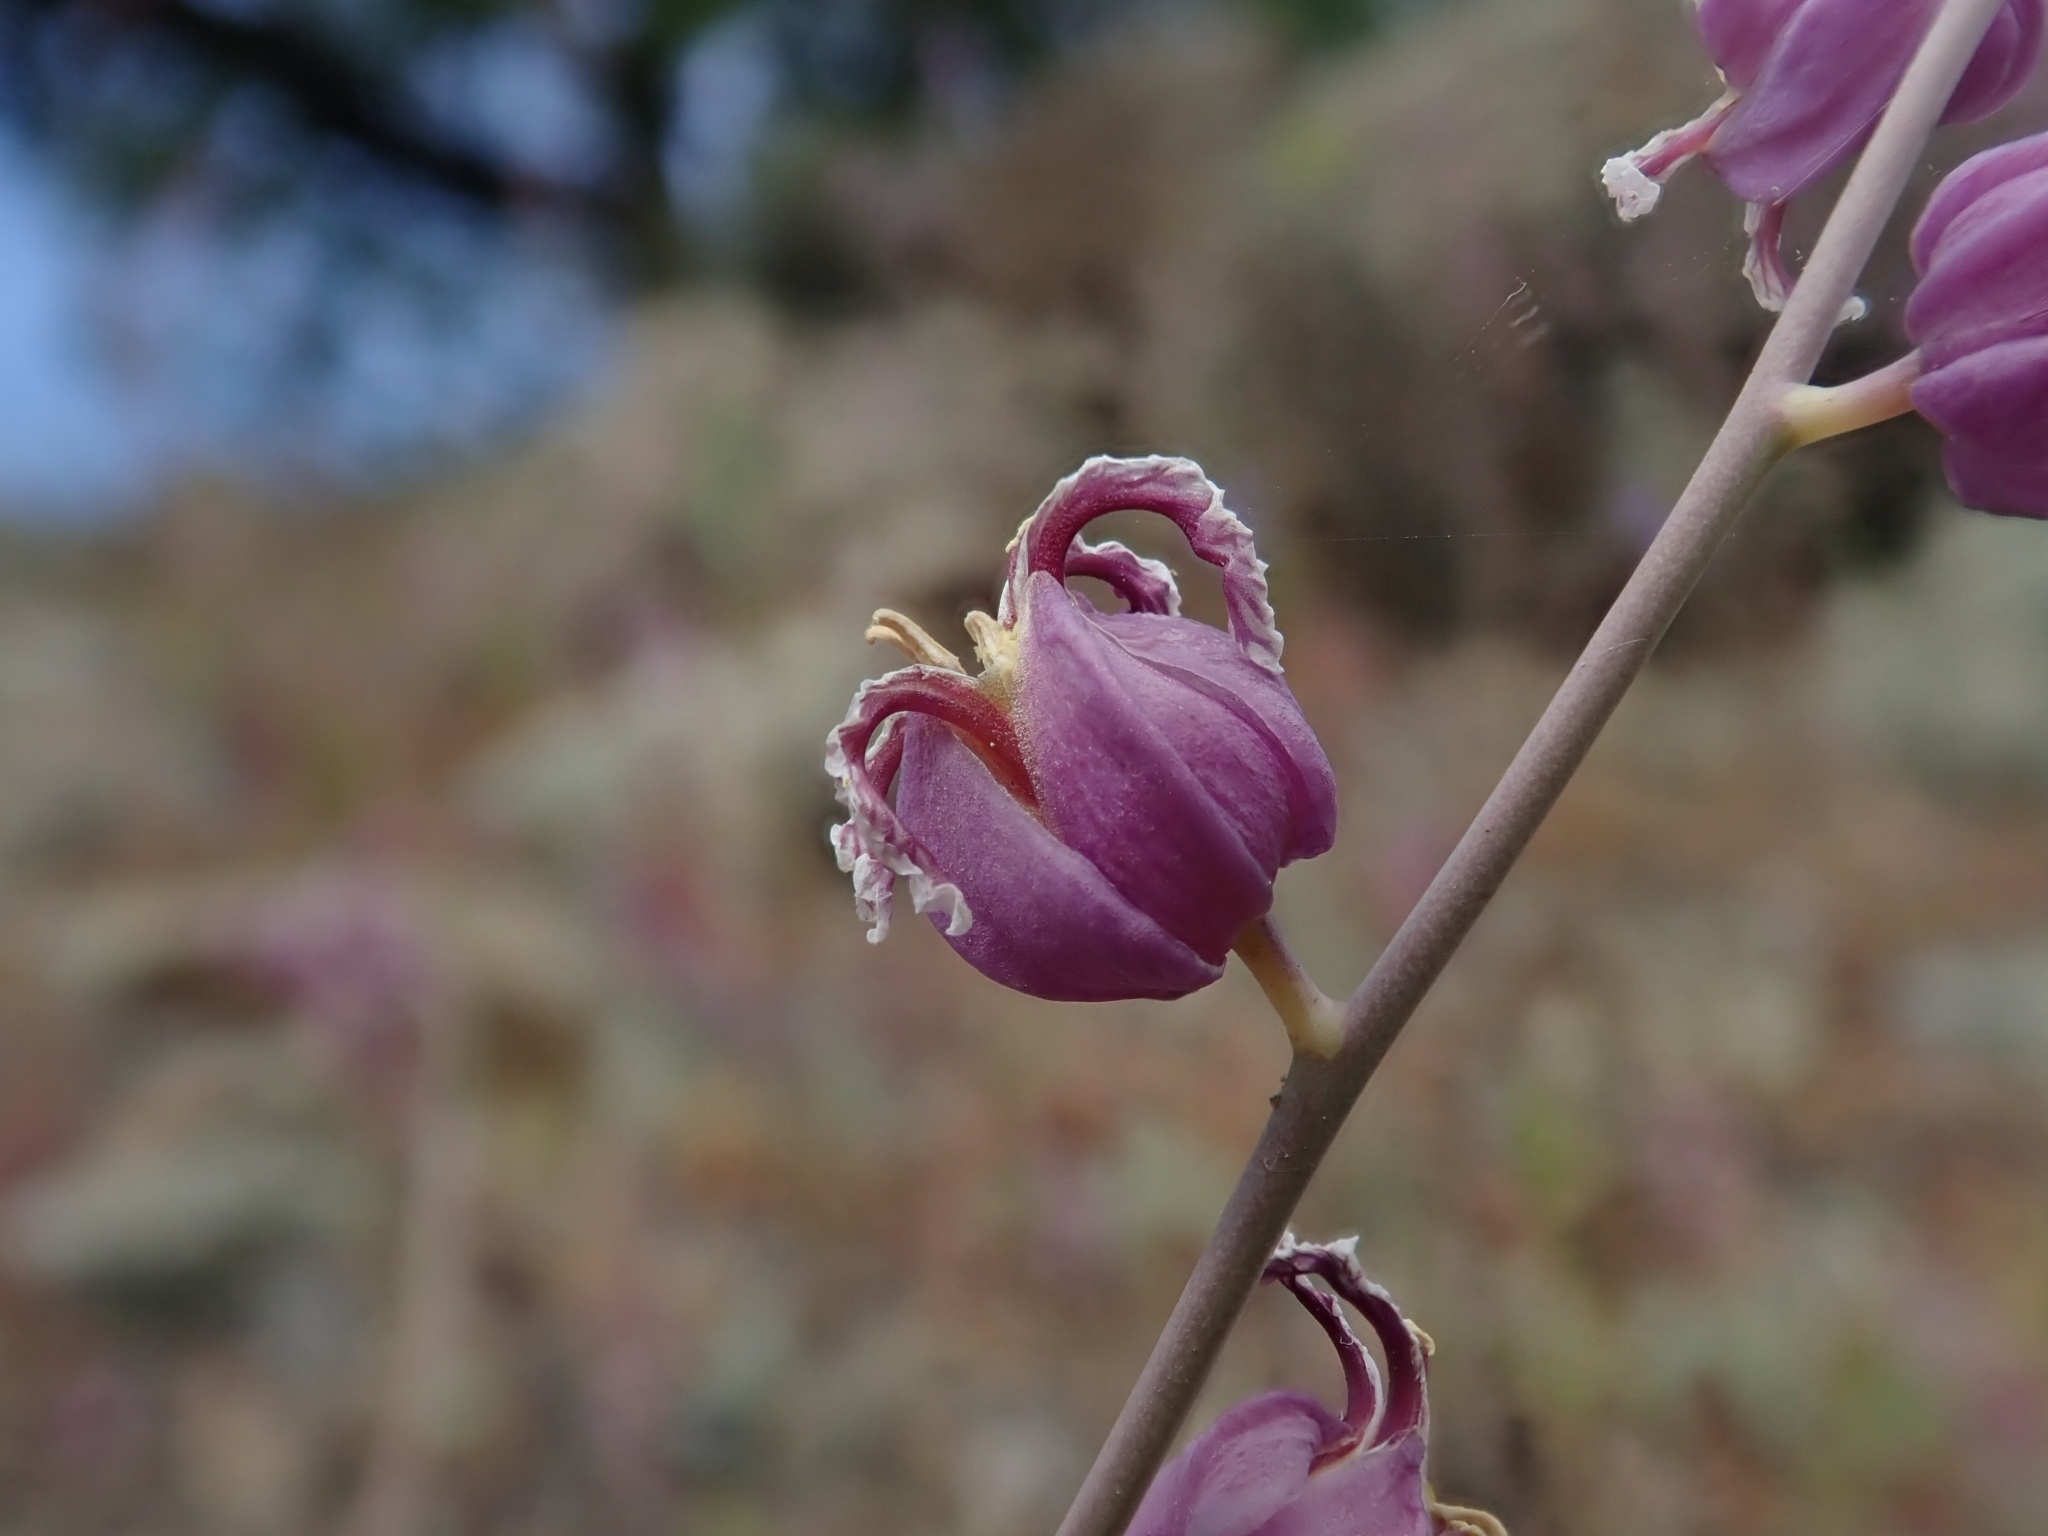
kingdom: Plantae
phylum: Tracheophyta
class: Magnoliopsida
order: Brassicales
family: Brassicaceae
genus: Streptanthus
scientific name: Streptanthus glandulosus
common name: Jewel-flower
